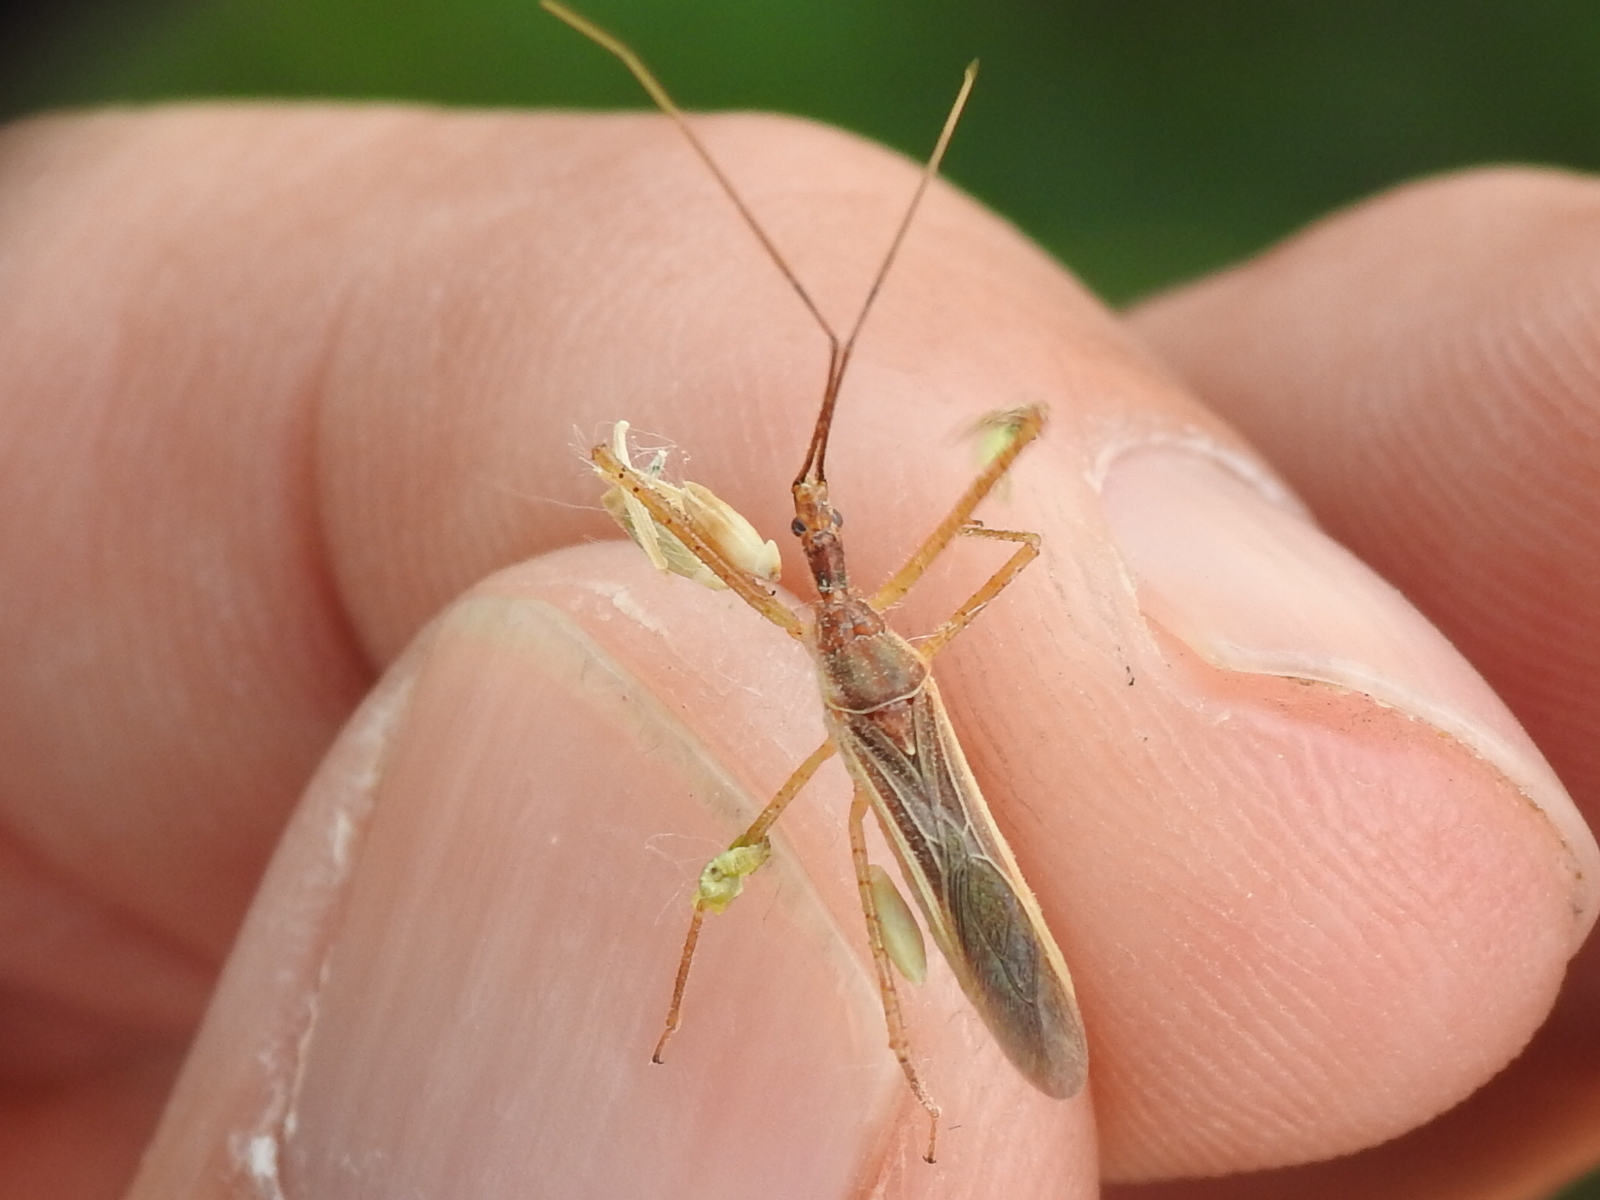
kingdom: Animalia
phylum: Arthropoda
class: Insecta
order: Hemiptera
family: Reduviidae
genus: Zelus
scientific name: Zelus cervicalis
